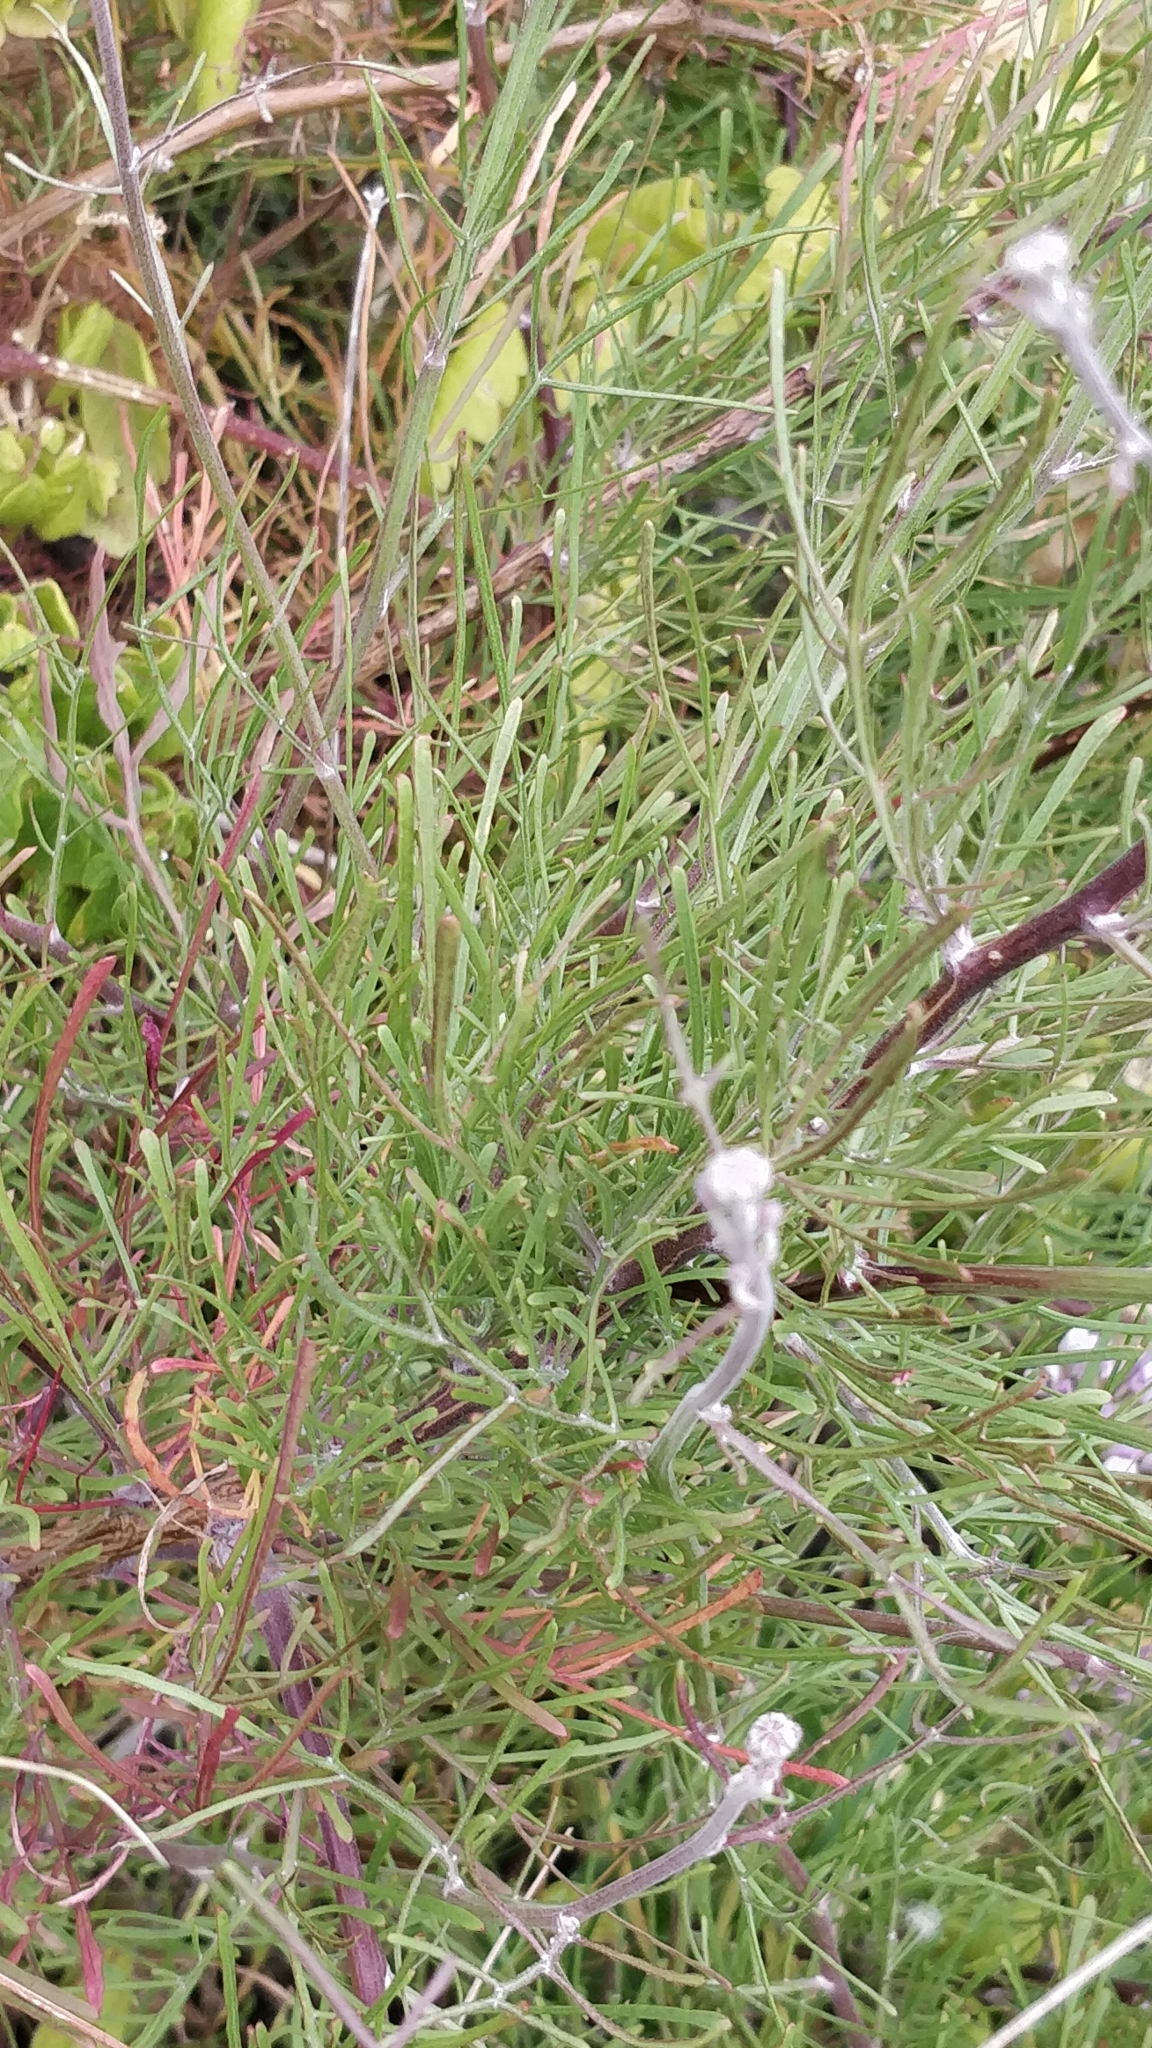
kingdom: Plantae
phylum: Tracheophyta
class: Magnoliopsida
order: Asterales
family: Asteraceae
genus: Tolpis
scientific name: Tolpis succulenta
